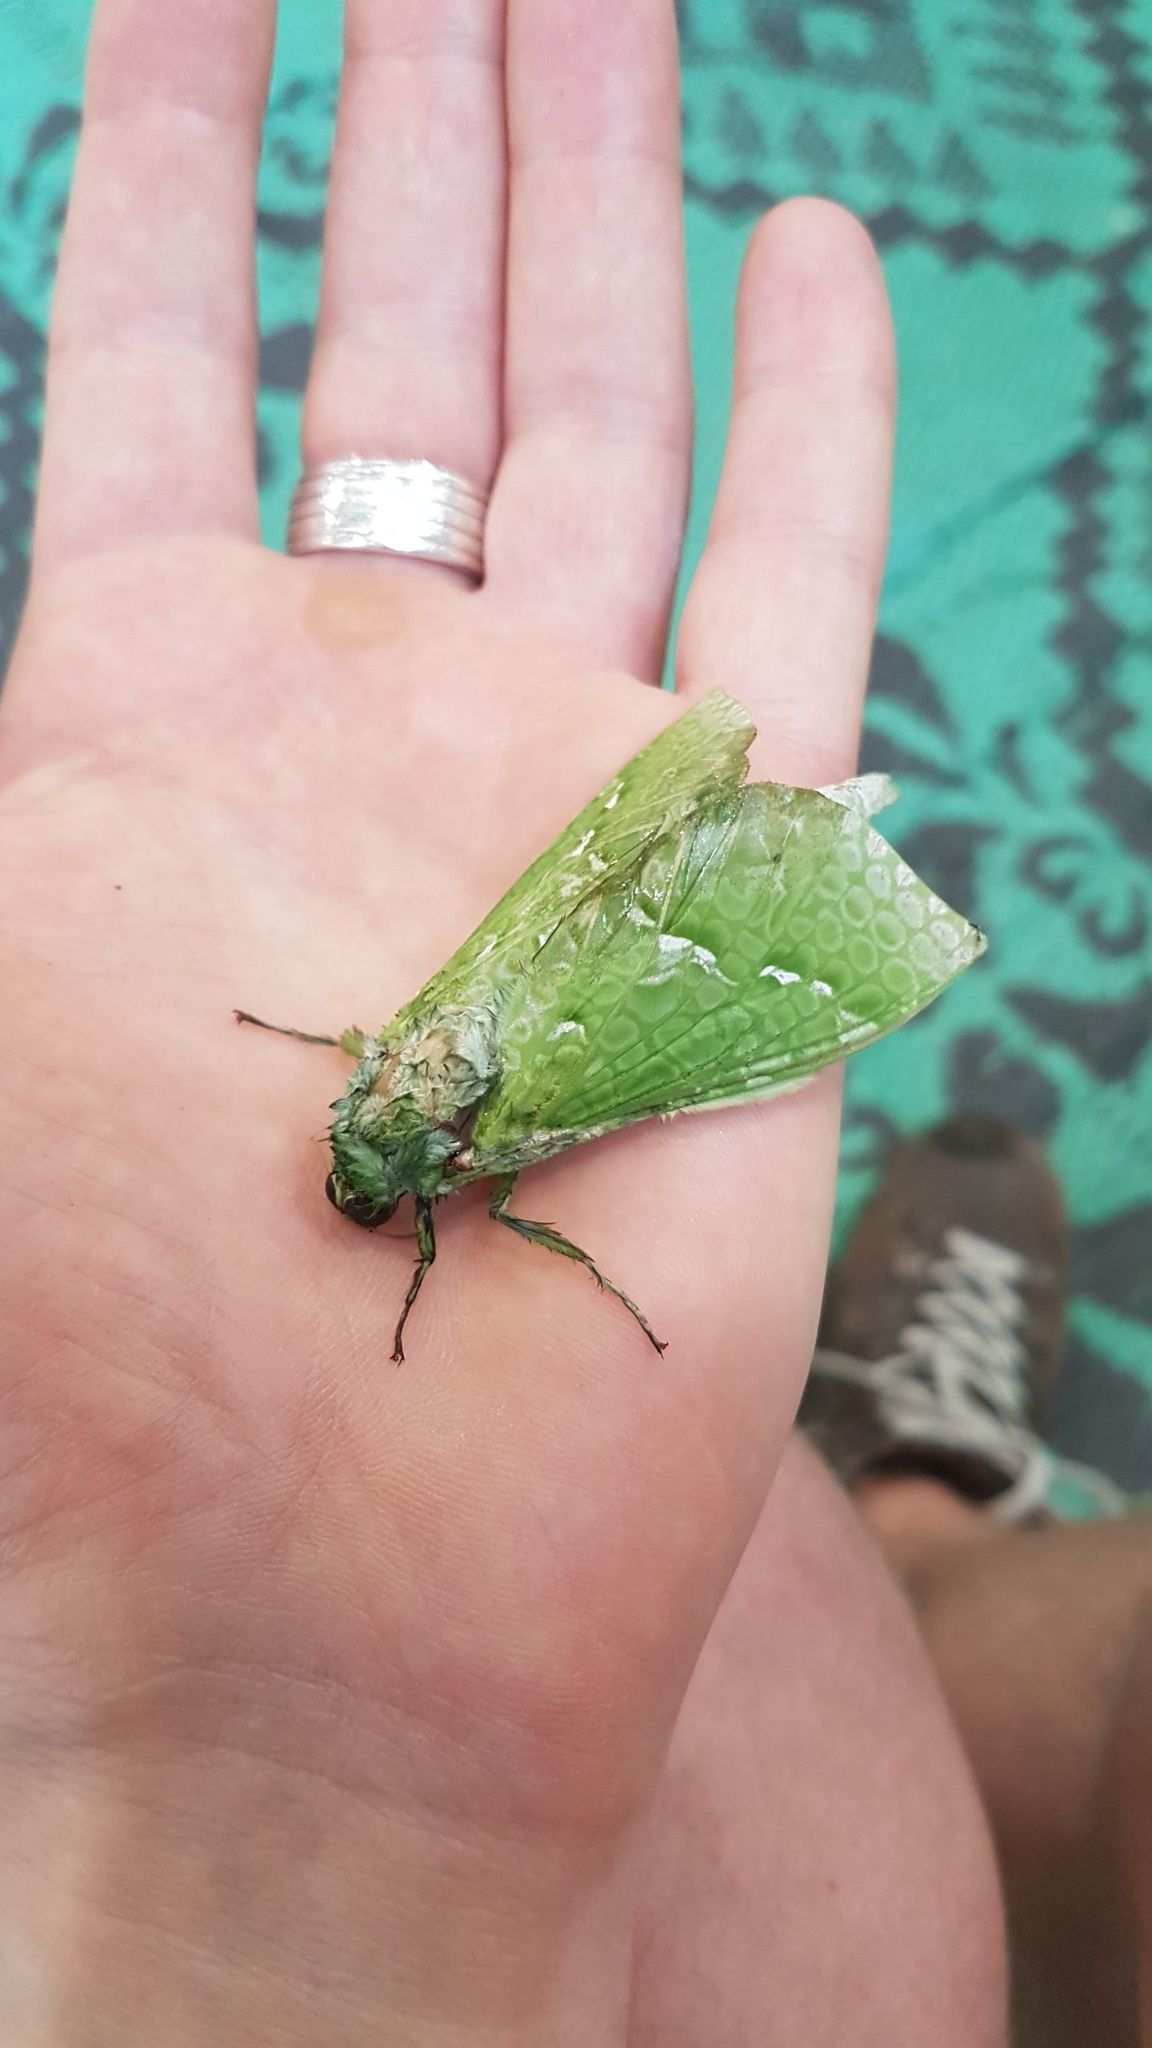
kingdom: Animalia
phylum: Arthropoda
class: Insecta
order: Lepidoptera
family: Hepialidae
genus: Aenetus
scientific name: Aenetus virescens
